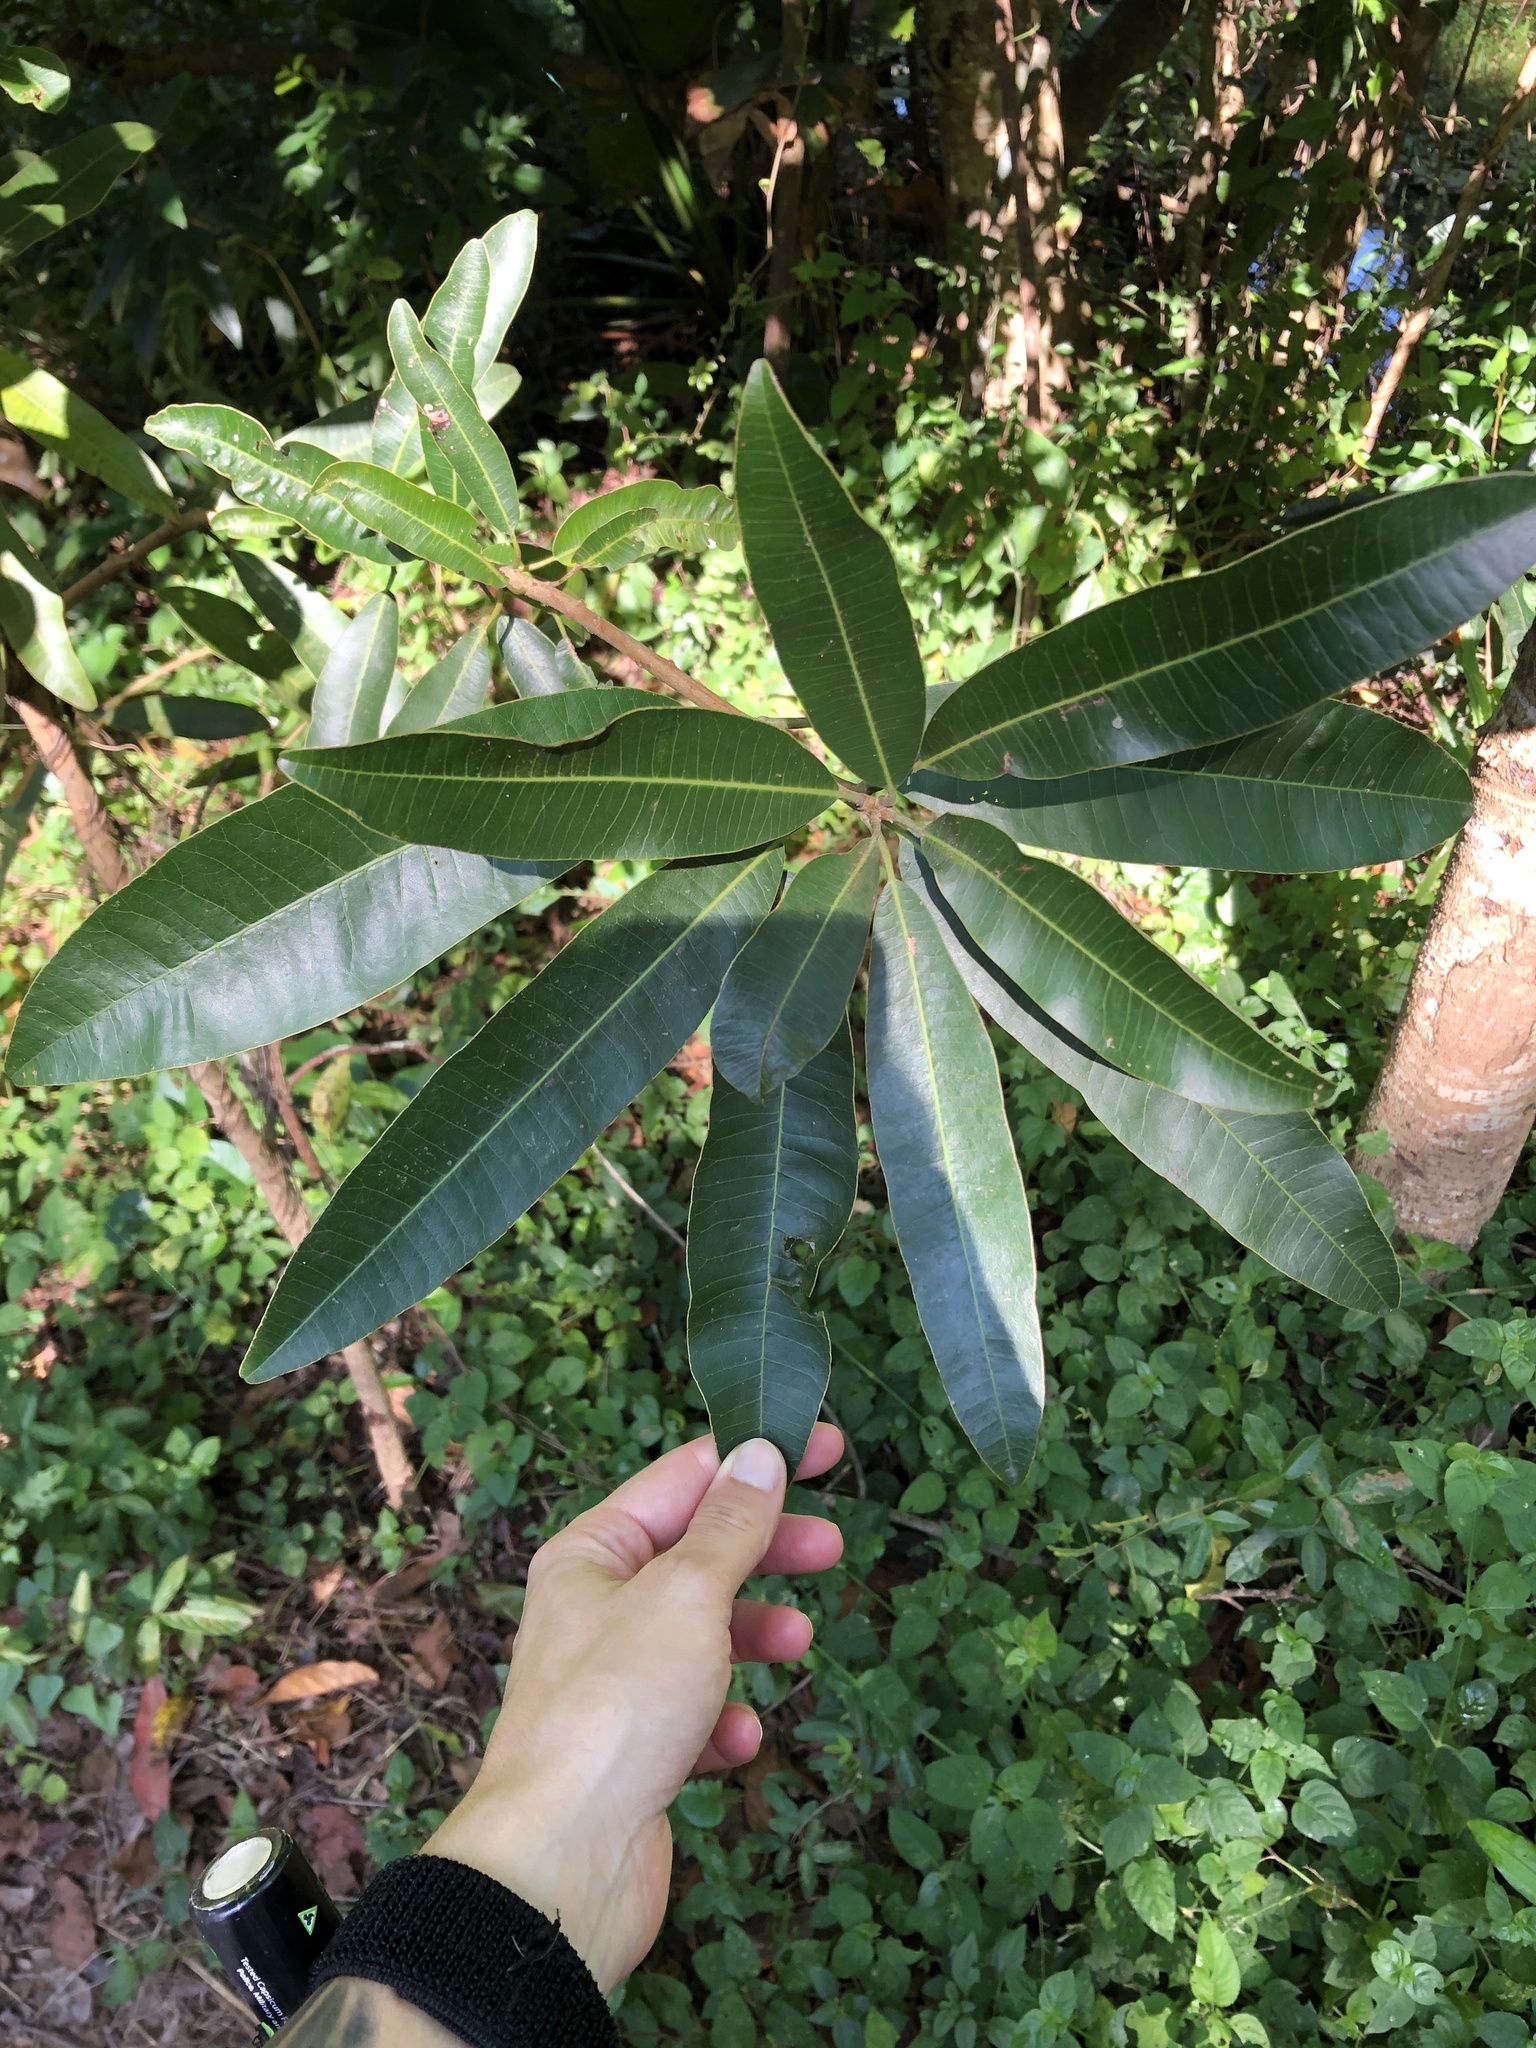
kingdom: Plantae
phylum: Tracheophyta
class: Magnoliopsida
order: Sapindales
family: Anacardiaceae
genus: Protorhus
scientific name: Protorhus longifolia
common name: Red-beech
